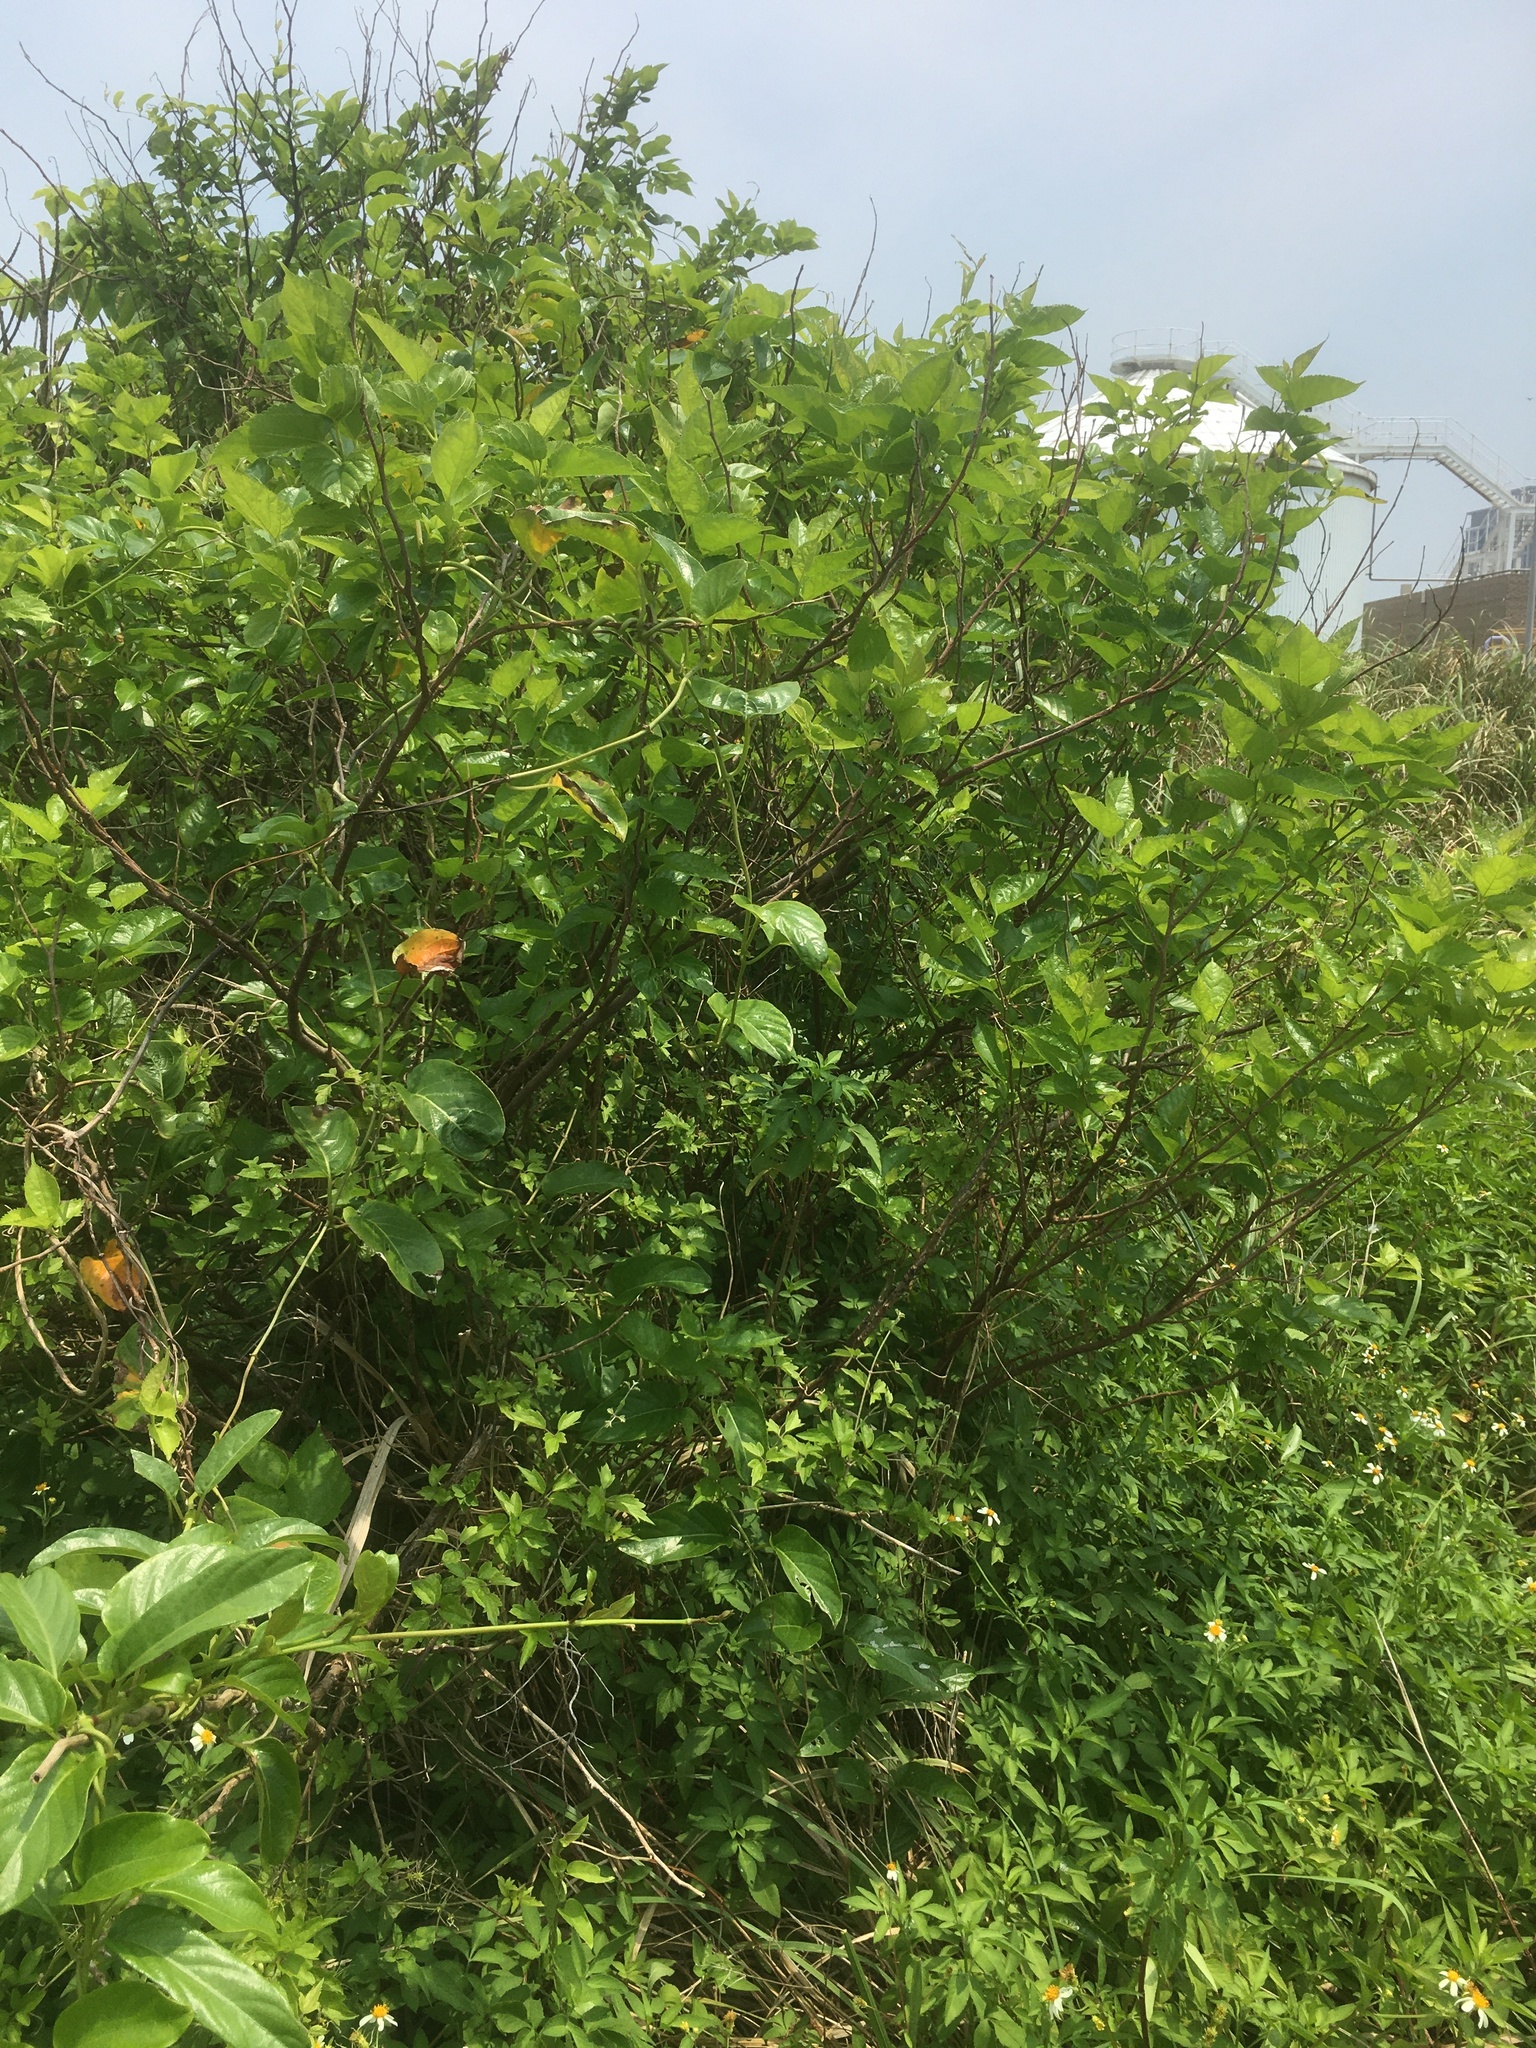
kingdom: Plantae
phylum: Tracheophyta
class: Magnoliopsida
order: Rosales
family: Moraceae
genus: Morus
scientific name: Morus indica
